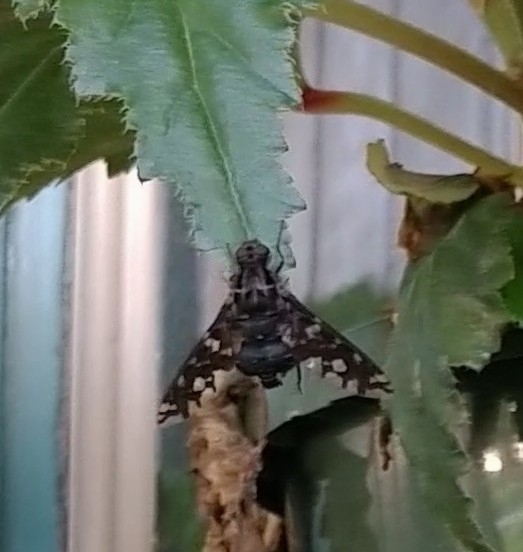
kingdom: Animalia
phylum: Arthropoda
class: Insecta
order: Diptera
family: Bombyliidae
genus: Xenox
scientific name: Xenox tigrinus
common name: Tiger bee fly
